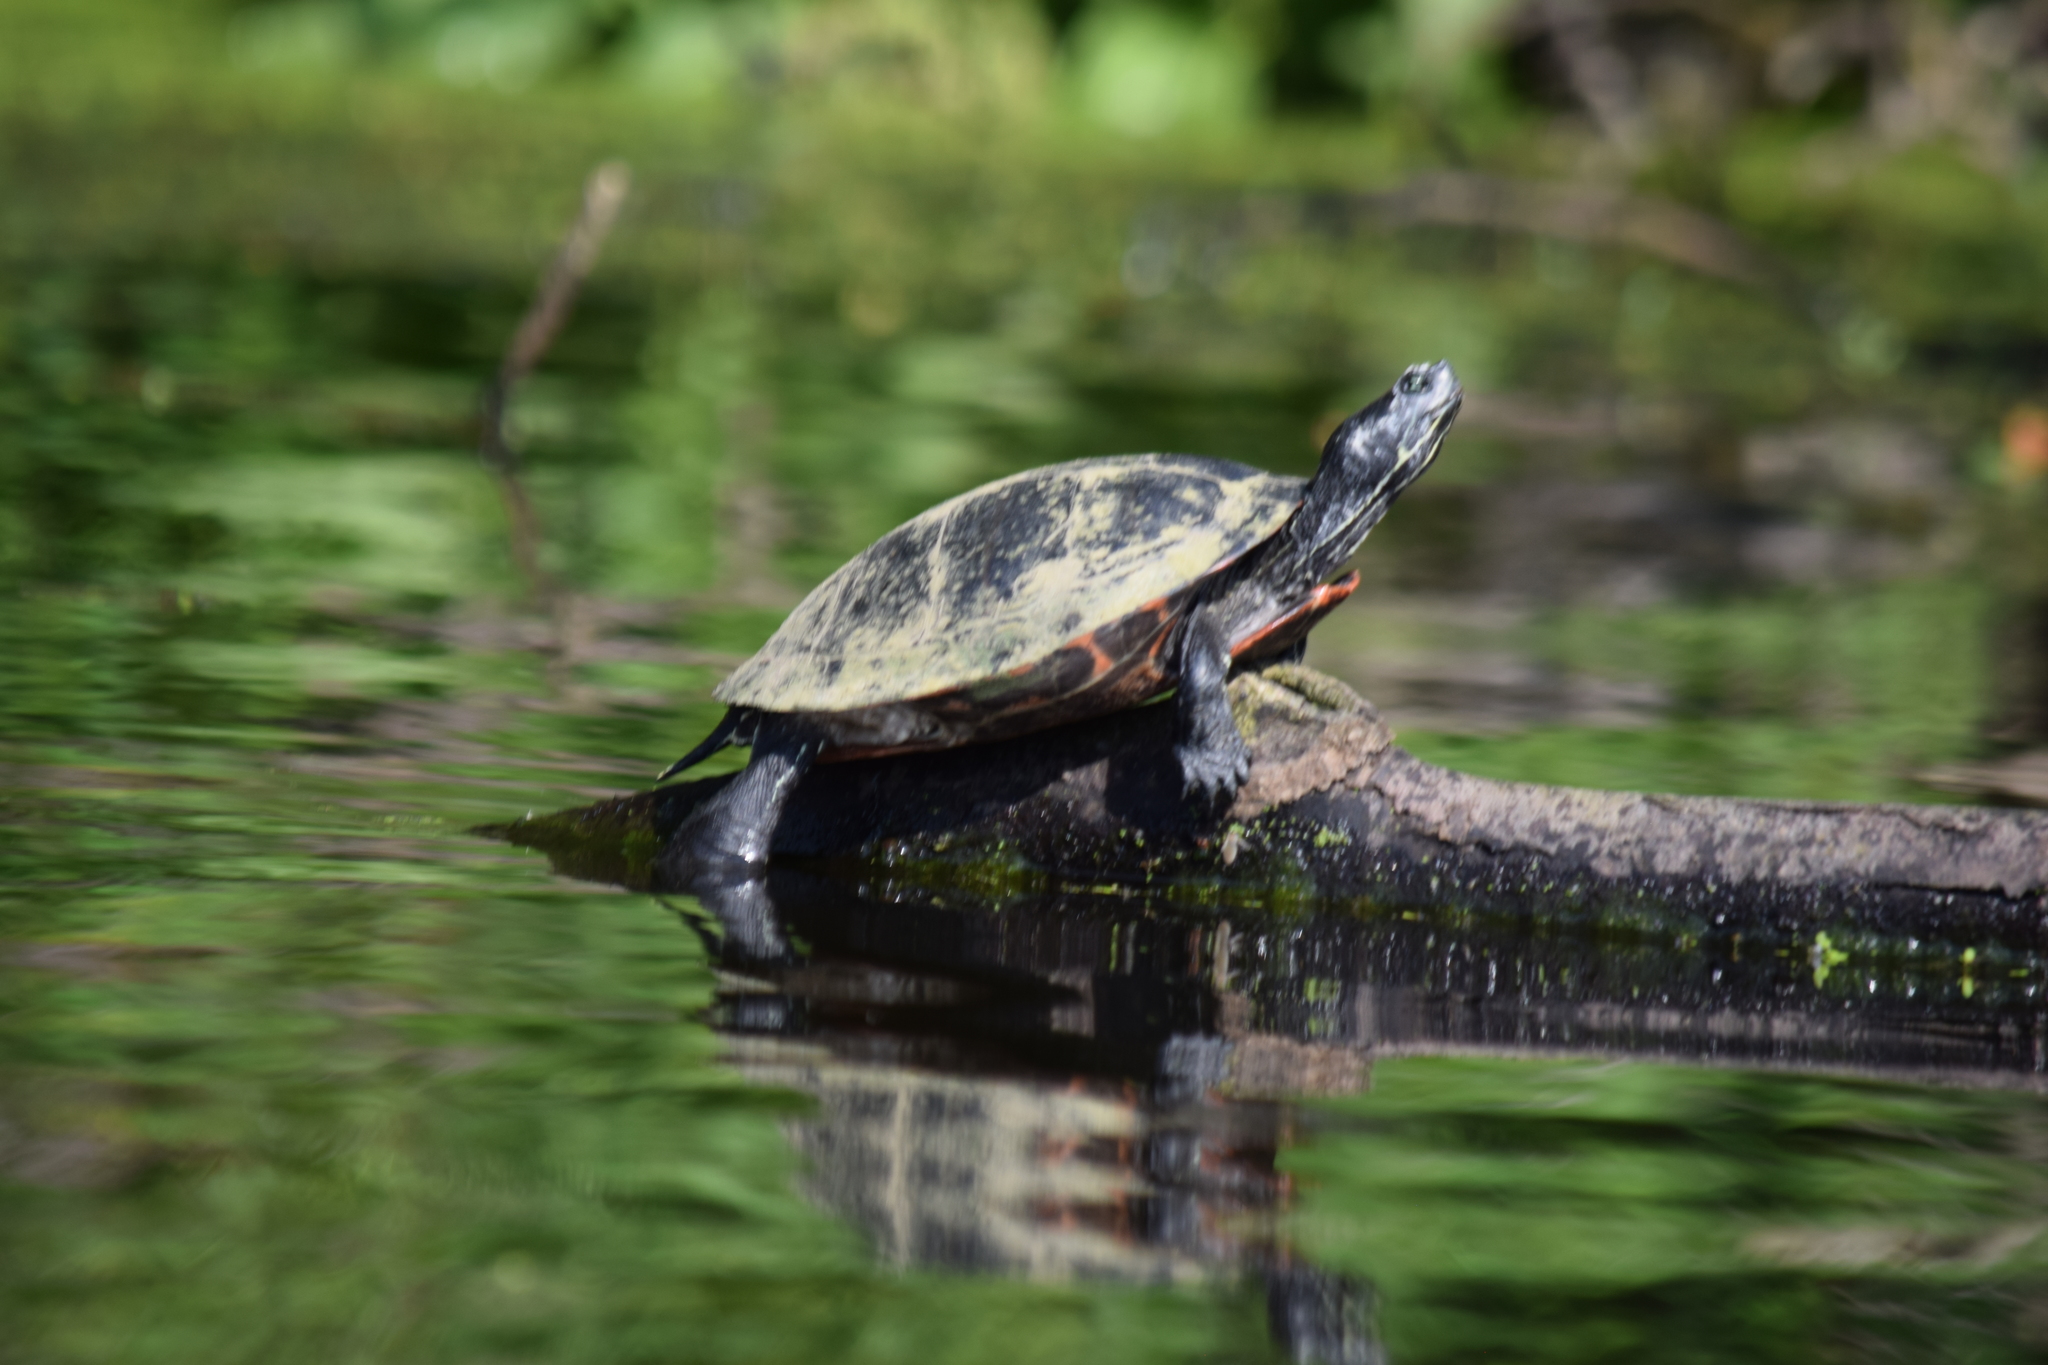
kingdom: Animalia
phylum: Chordata
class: Testudines
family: Emydidae
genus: Pseudemys
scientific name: Pseudemys rubriventris
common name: American red-bellied turtle
